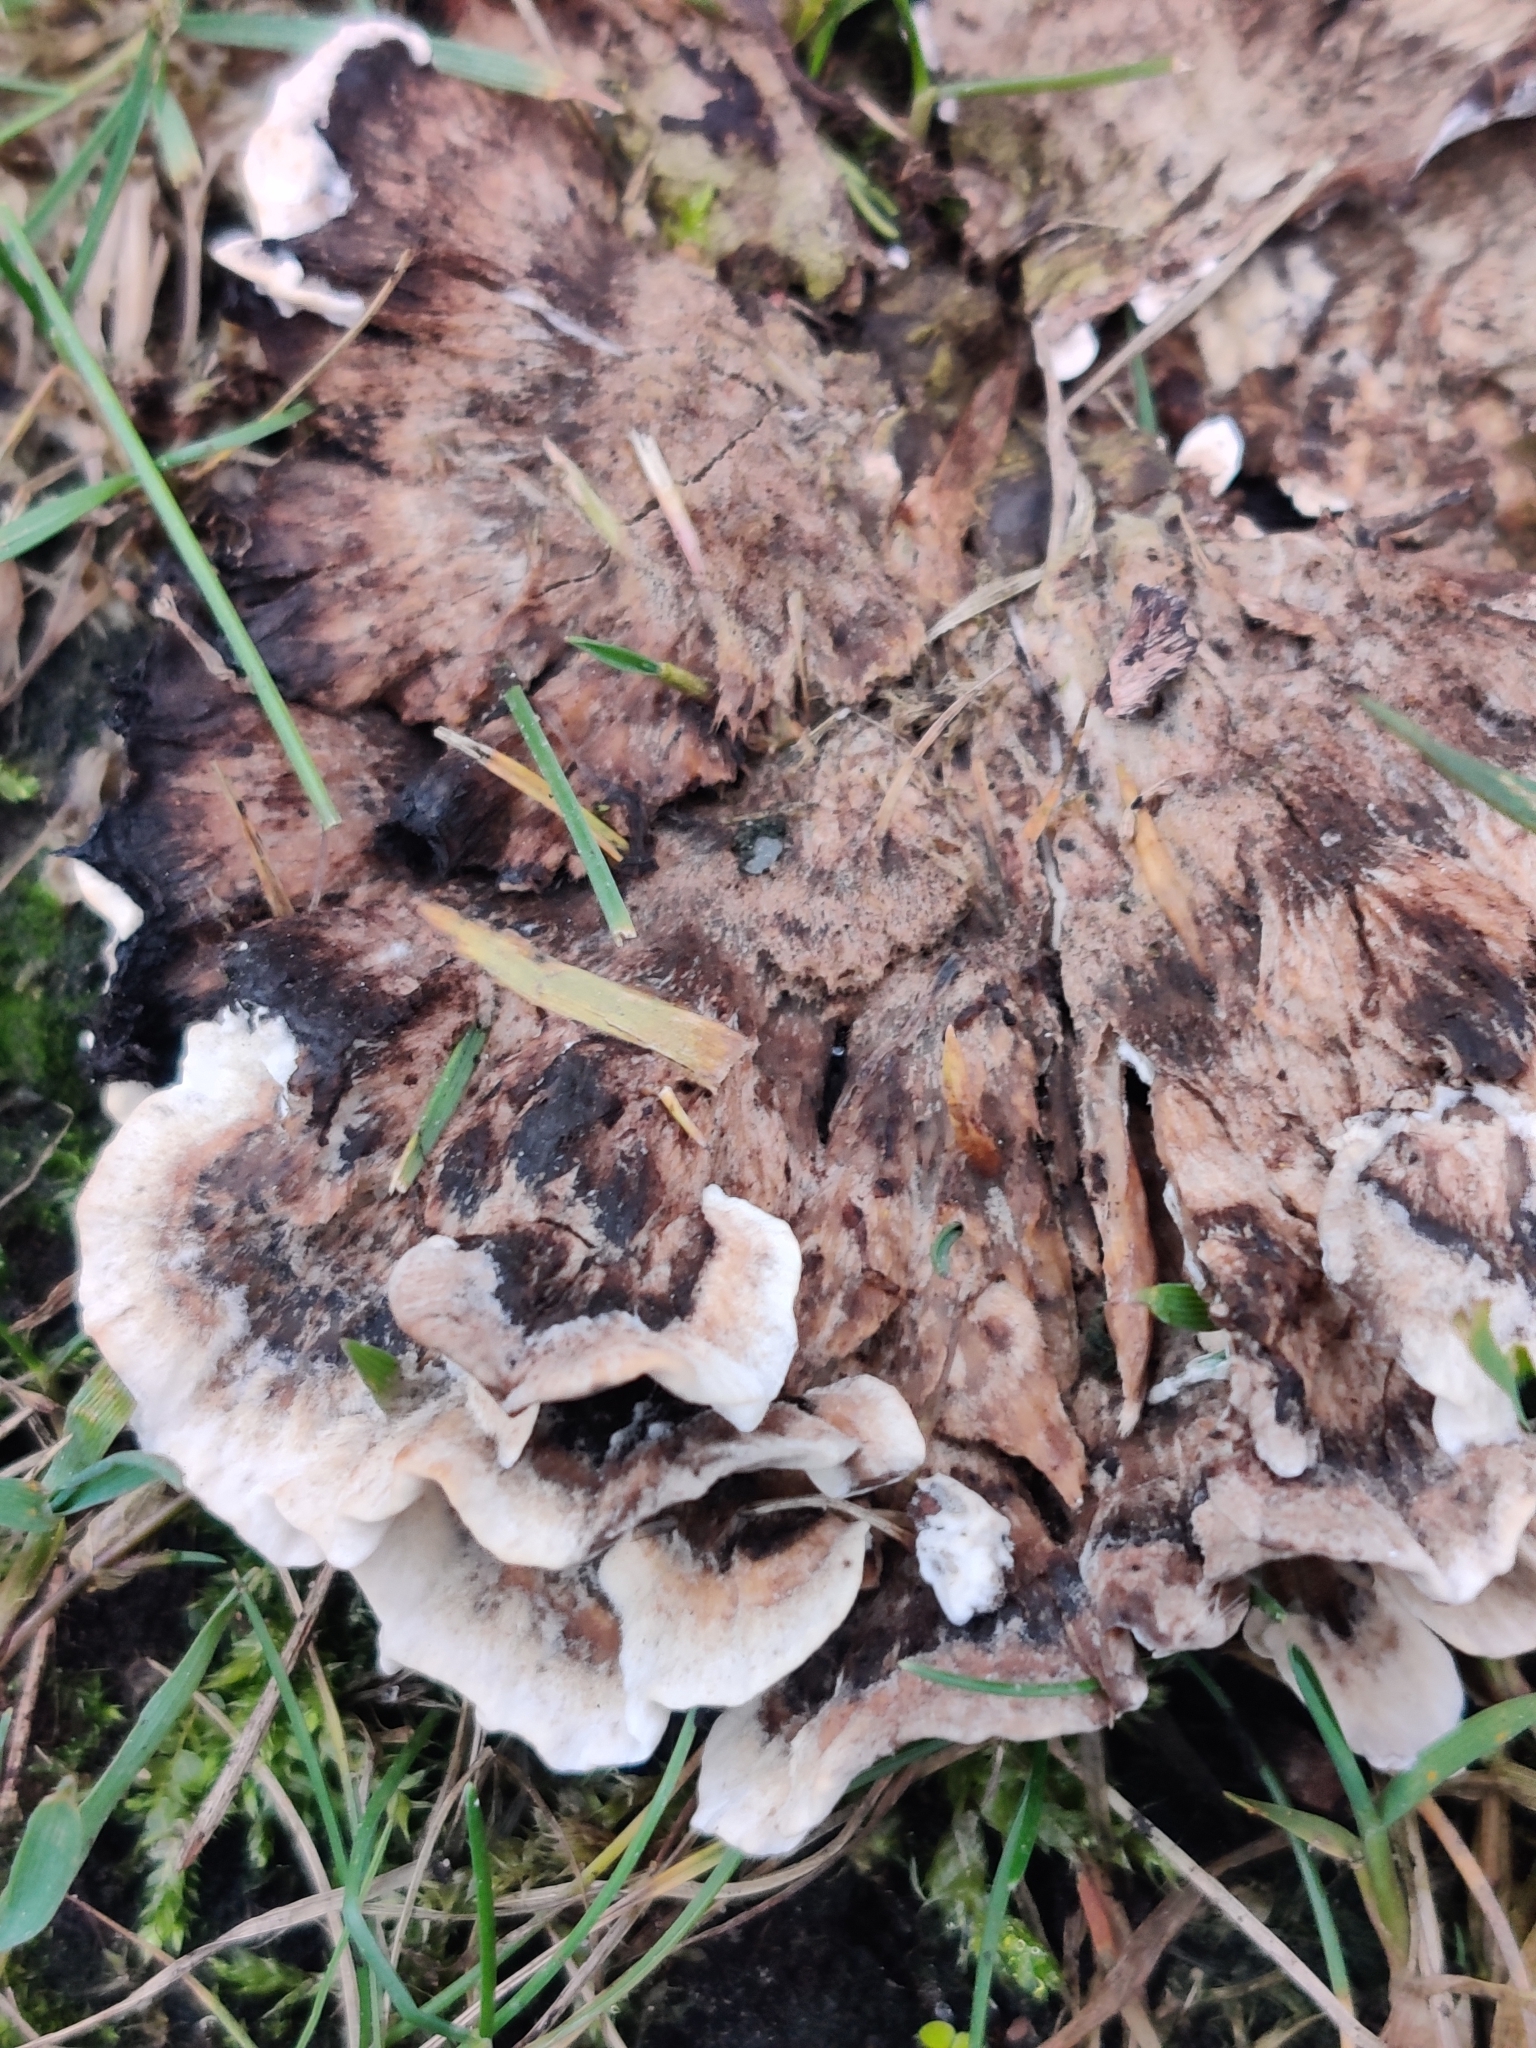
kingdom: Fungi
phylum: Basidiomycota
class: Agaricomycetes
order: Thelephorales
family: Thelephoraceae
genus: Thelephora
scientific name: Thelephora terrestris
